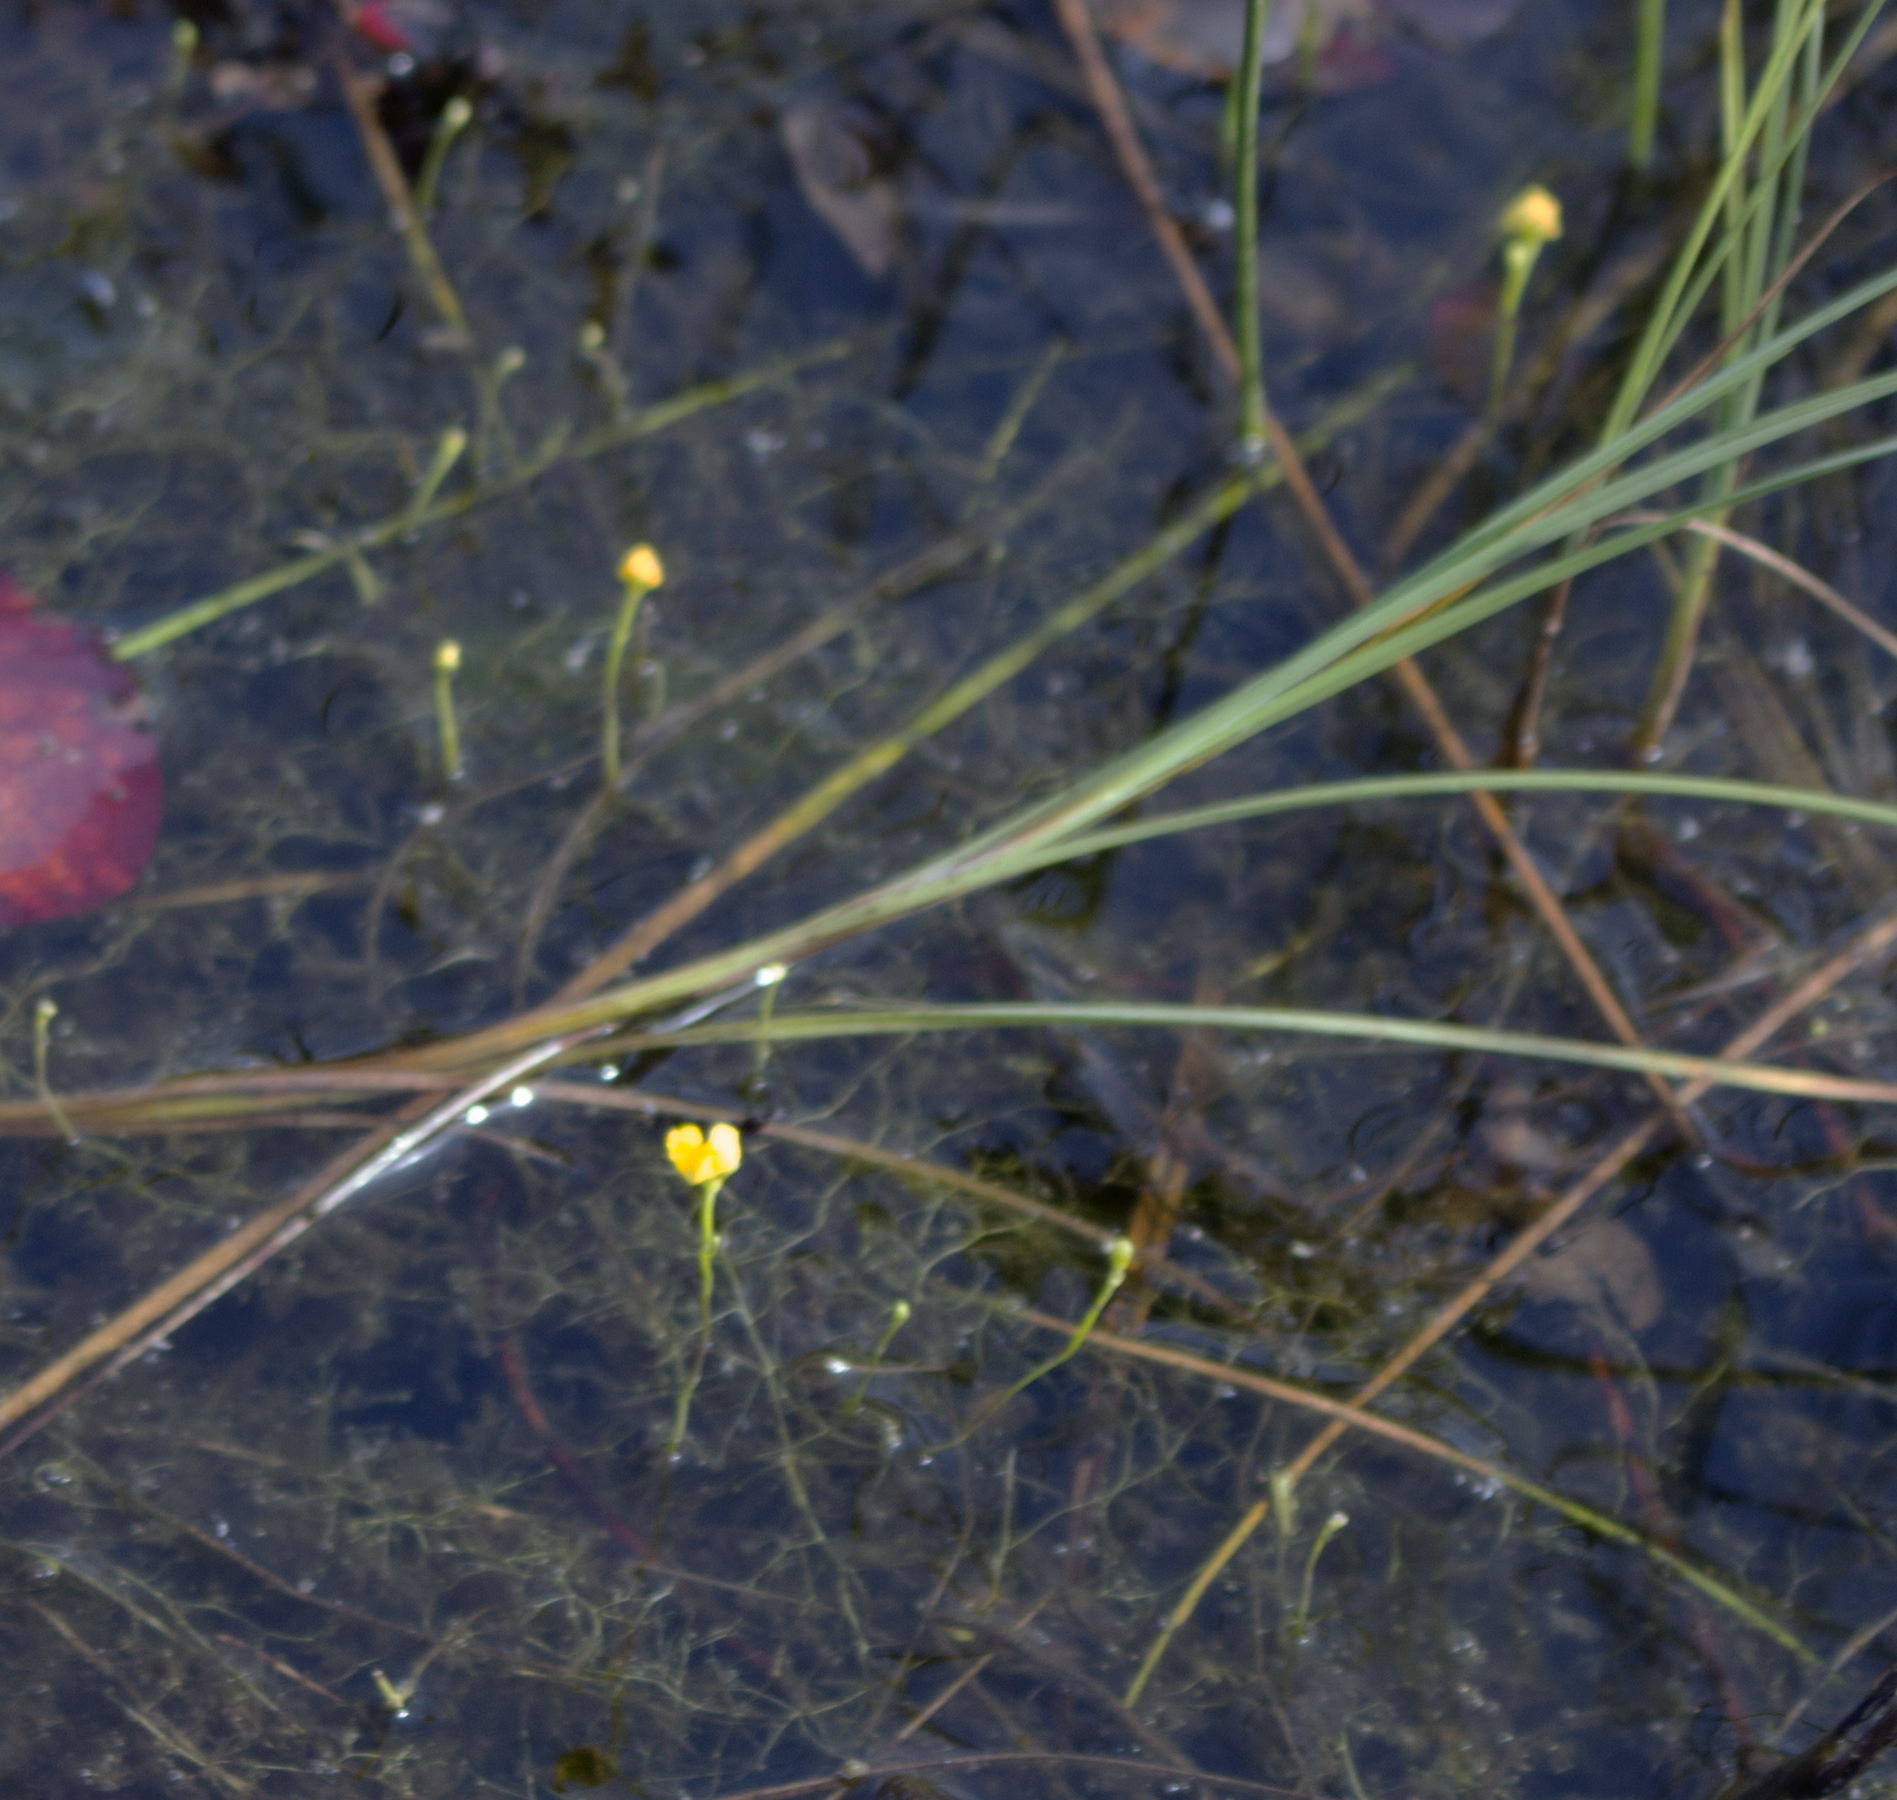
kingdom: Plantae
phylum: Tracheophyta
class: Magnoliopsida
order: Lamiales
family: Lentibulariaceae
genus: Utricularia
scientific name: Utricularia gibba
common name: Humped bladderwort
